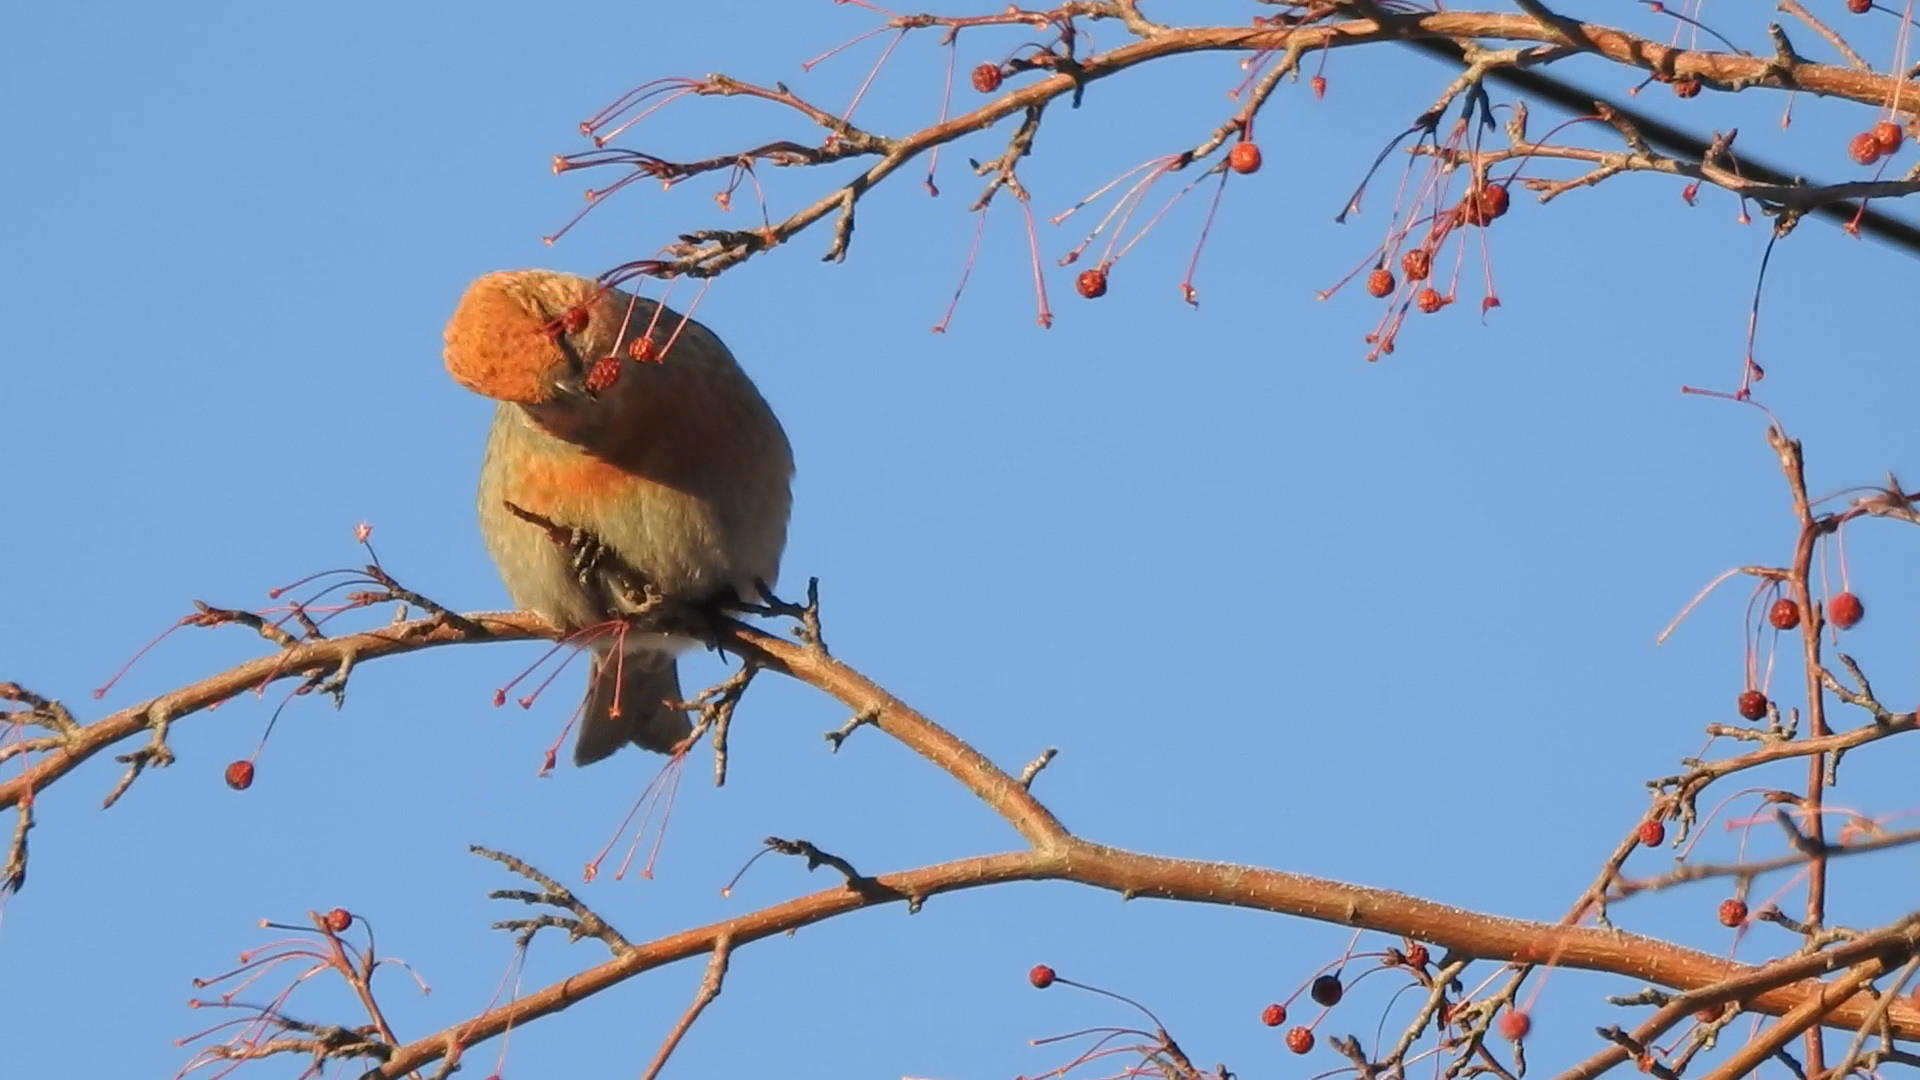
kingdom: Animalia
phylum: Chordata
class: Aves
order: Passeriformes
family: Fringillidae
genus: Pinicola
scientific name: Pinicola enucleator
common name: Pine grosbeak
